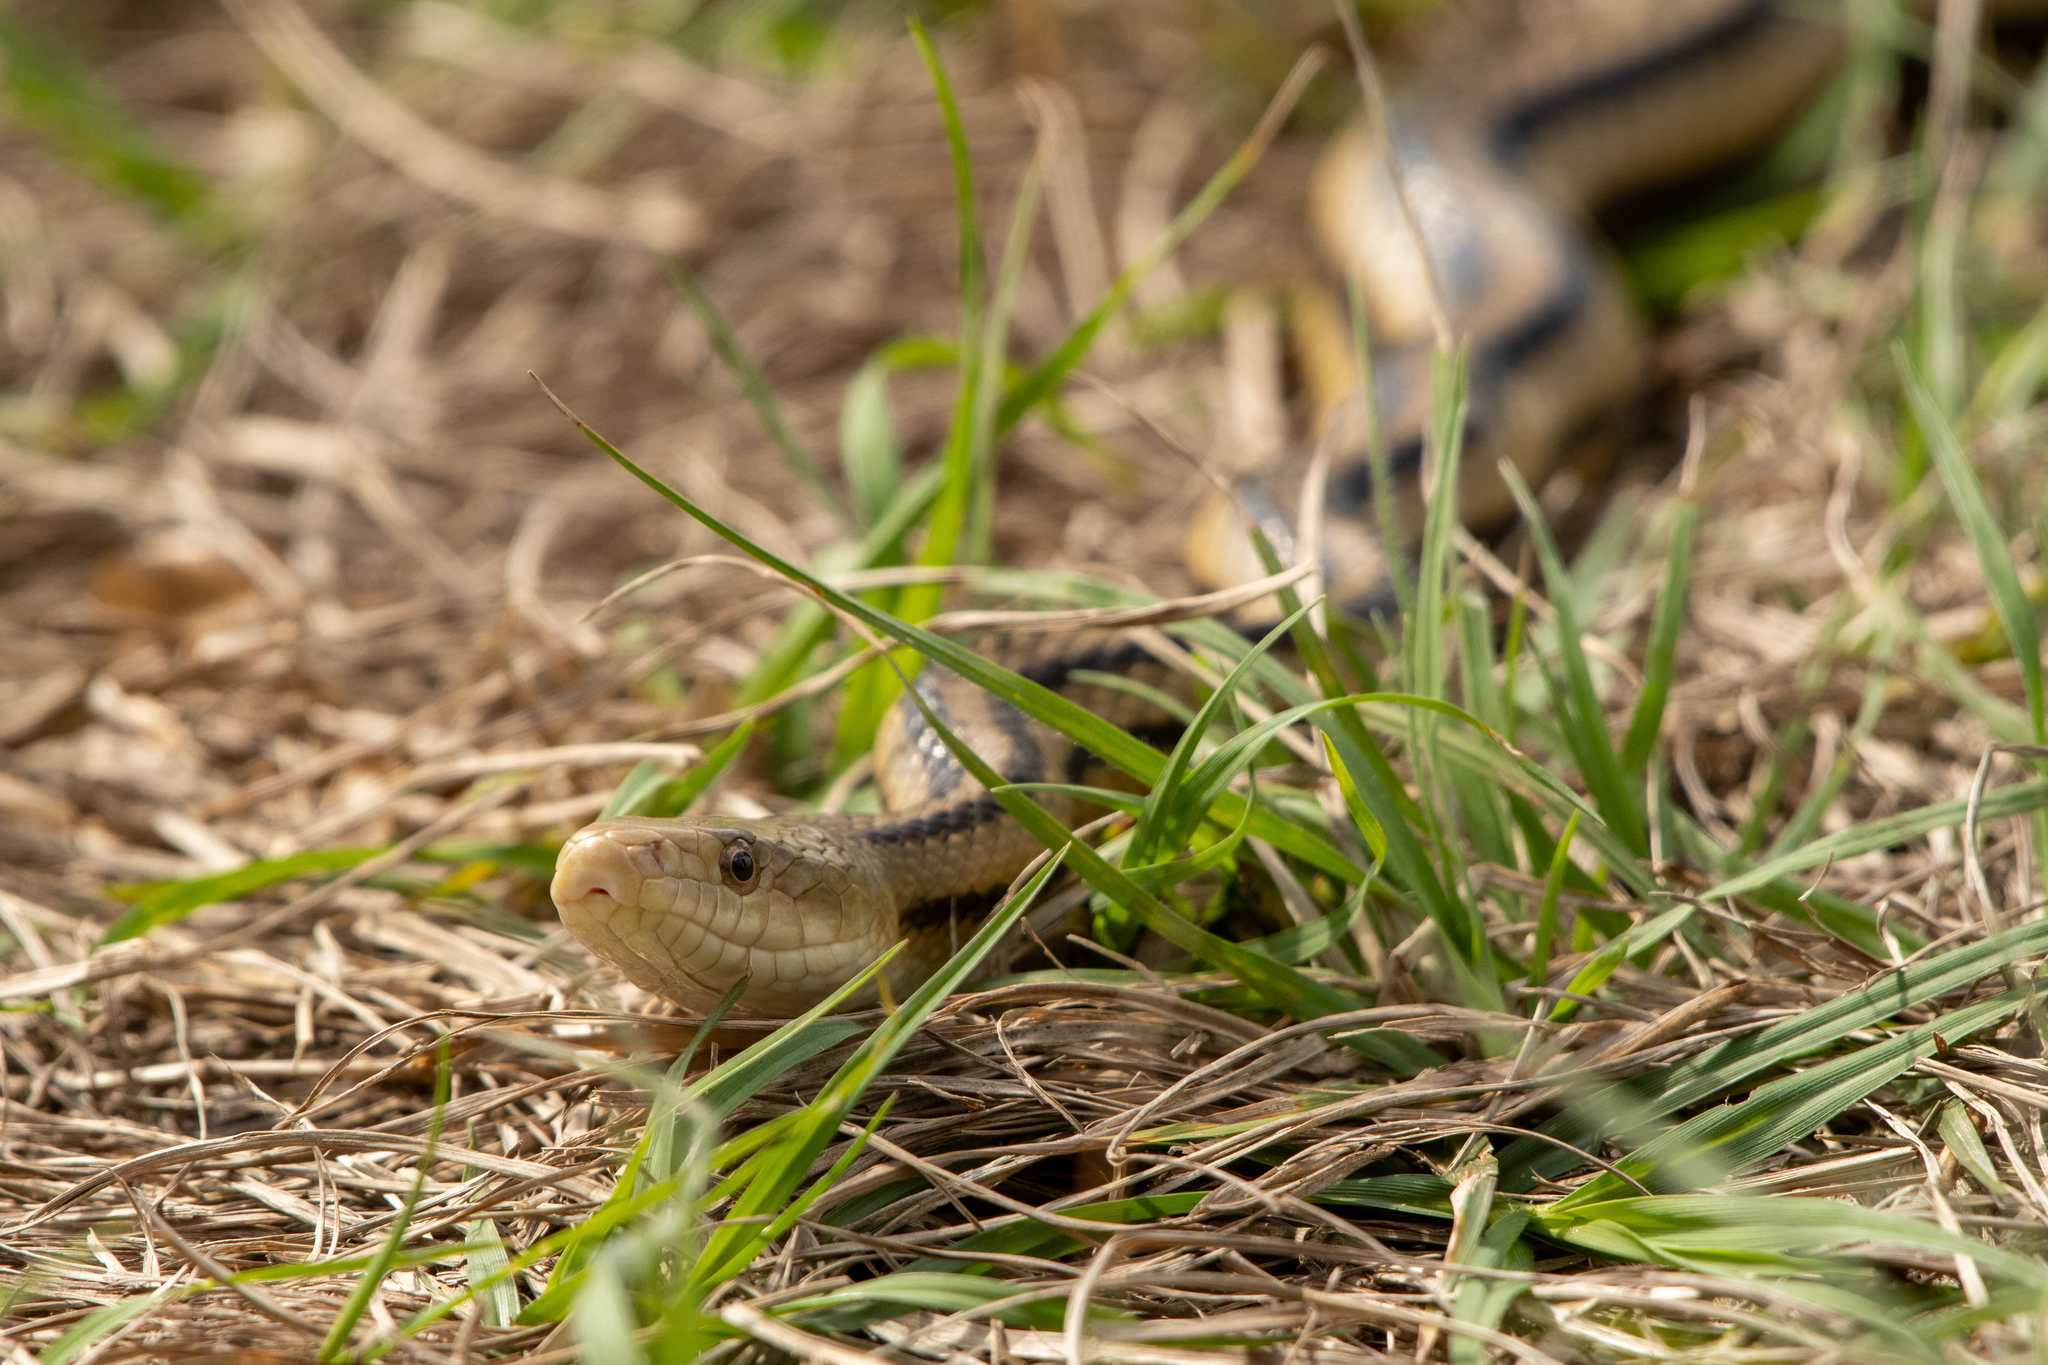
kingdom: Animalia
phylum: Chordata
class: Squamata
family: Colubridae
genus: Pantherophis
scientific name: Pantherophis alleghaniensis
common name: Eastern rat snake
